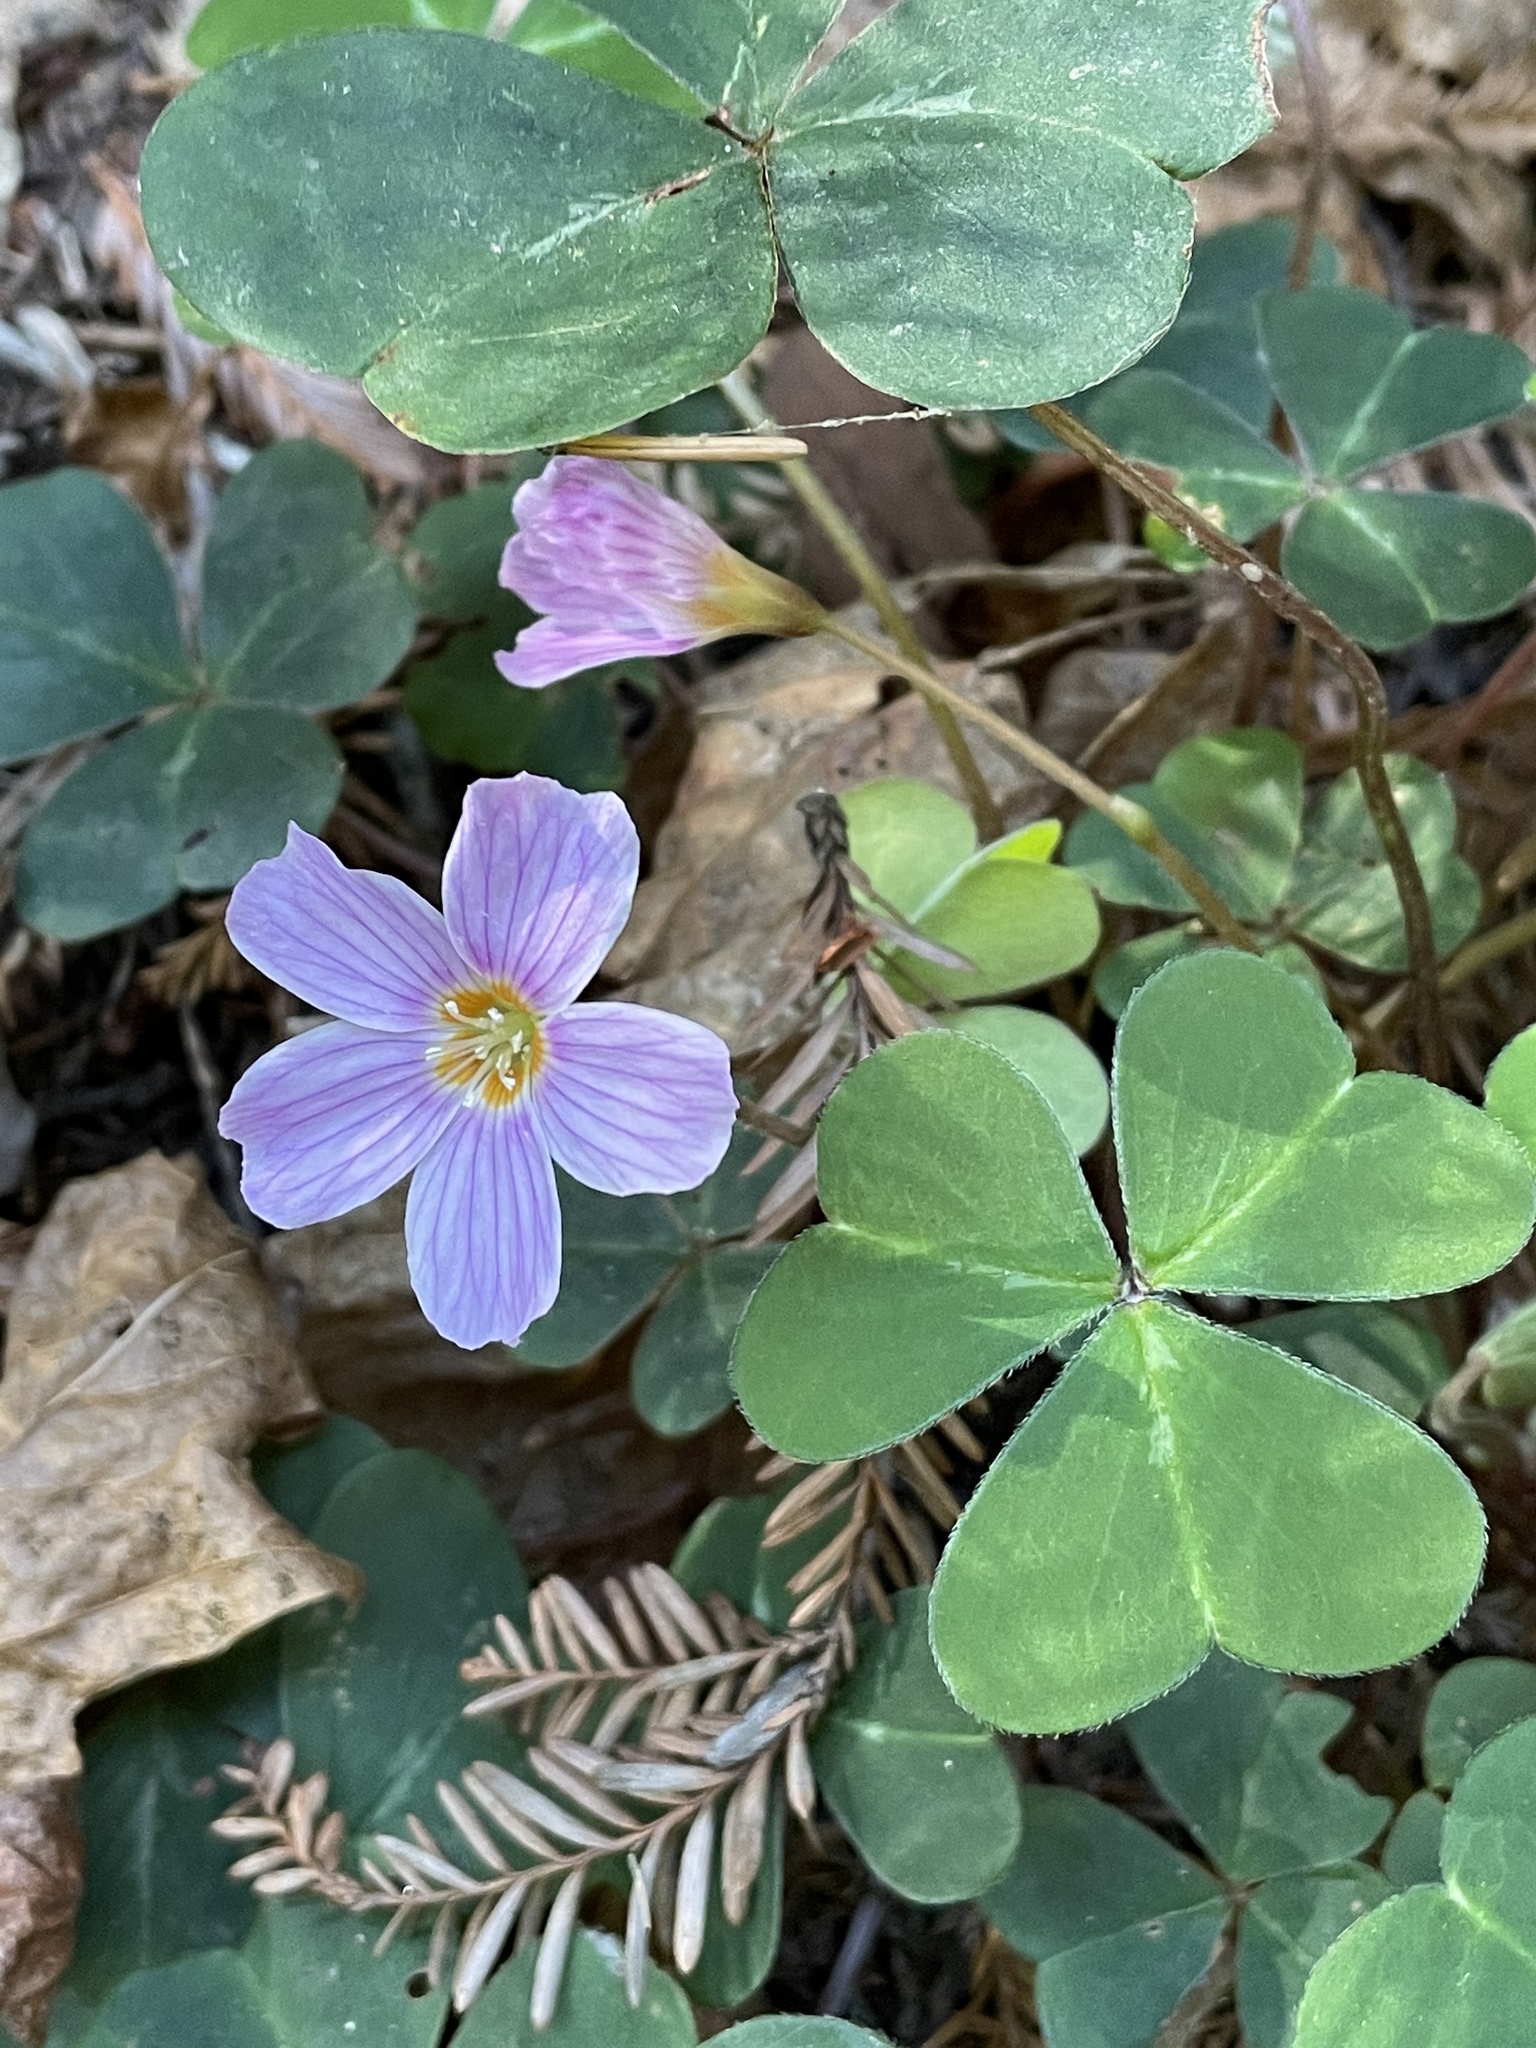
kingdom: Plantae
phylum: Tracheophyta
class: Magnoliopsida
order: Oxalidales
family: Oxalidaceae
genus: Oxalis
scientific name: Oxalis oregana
